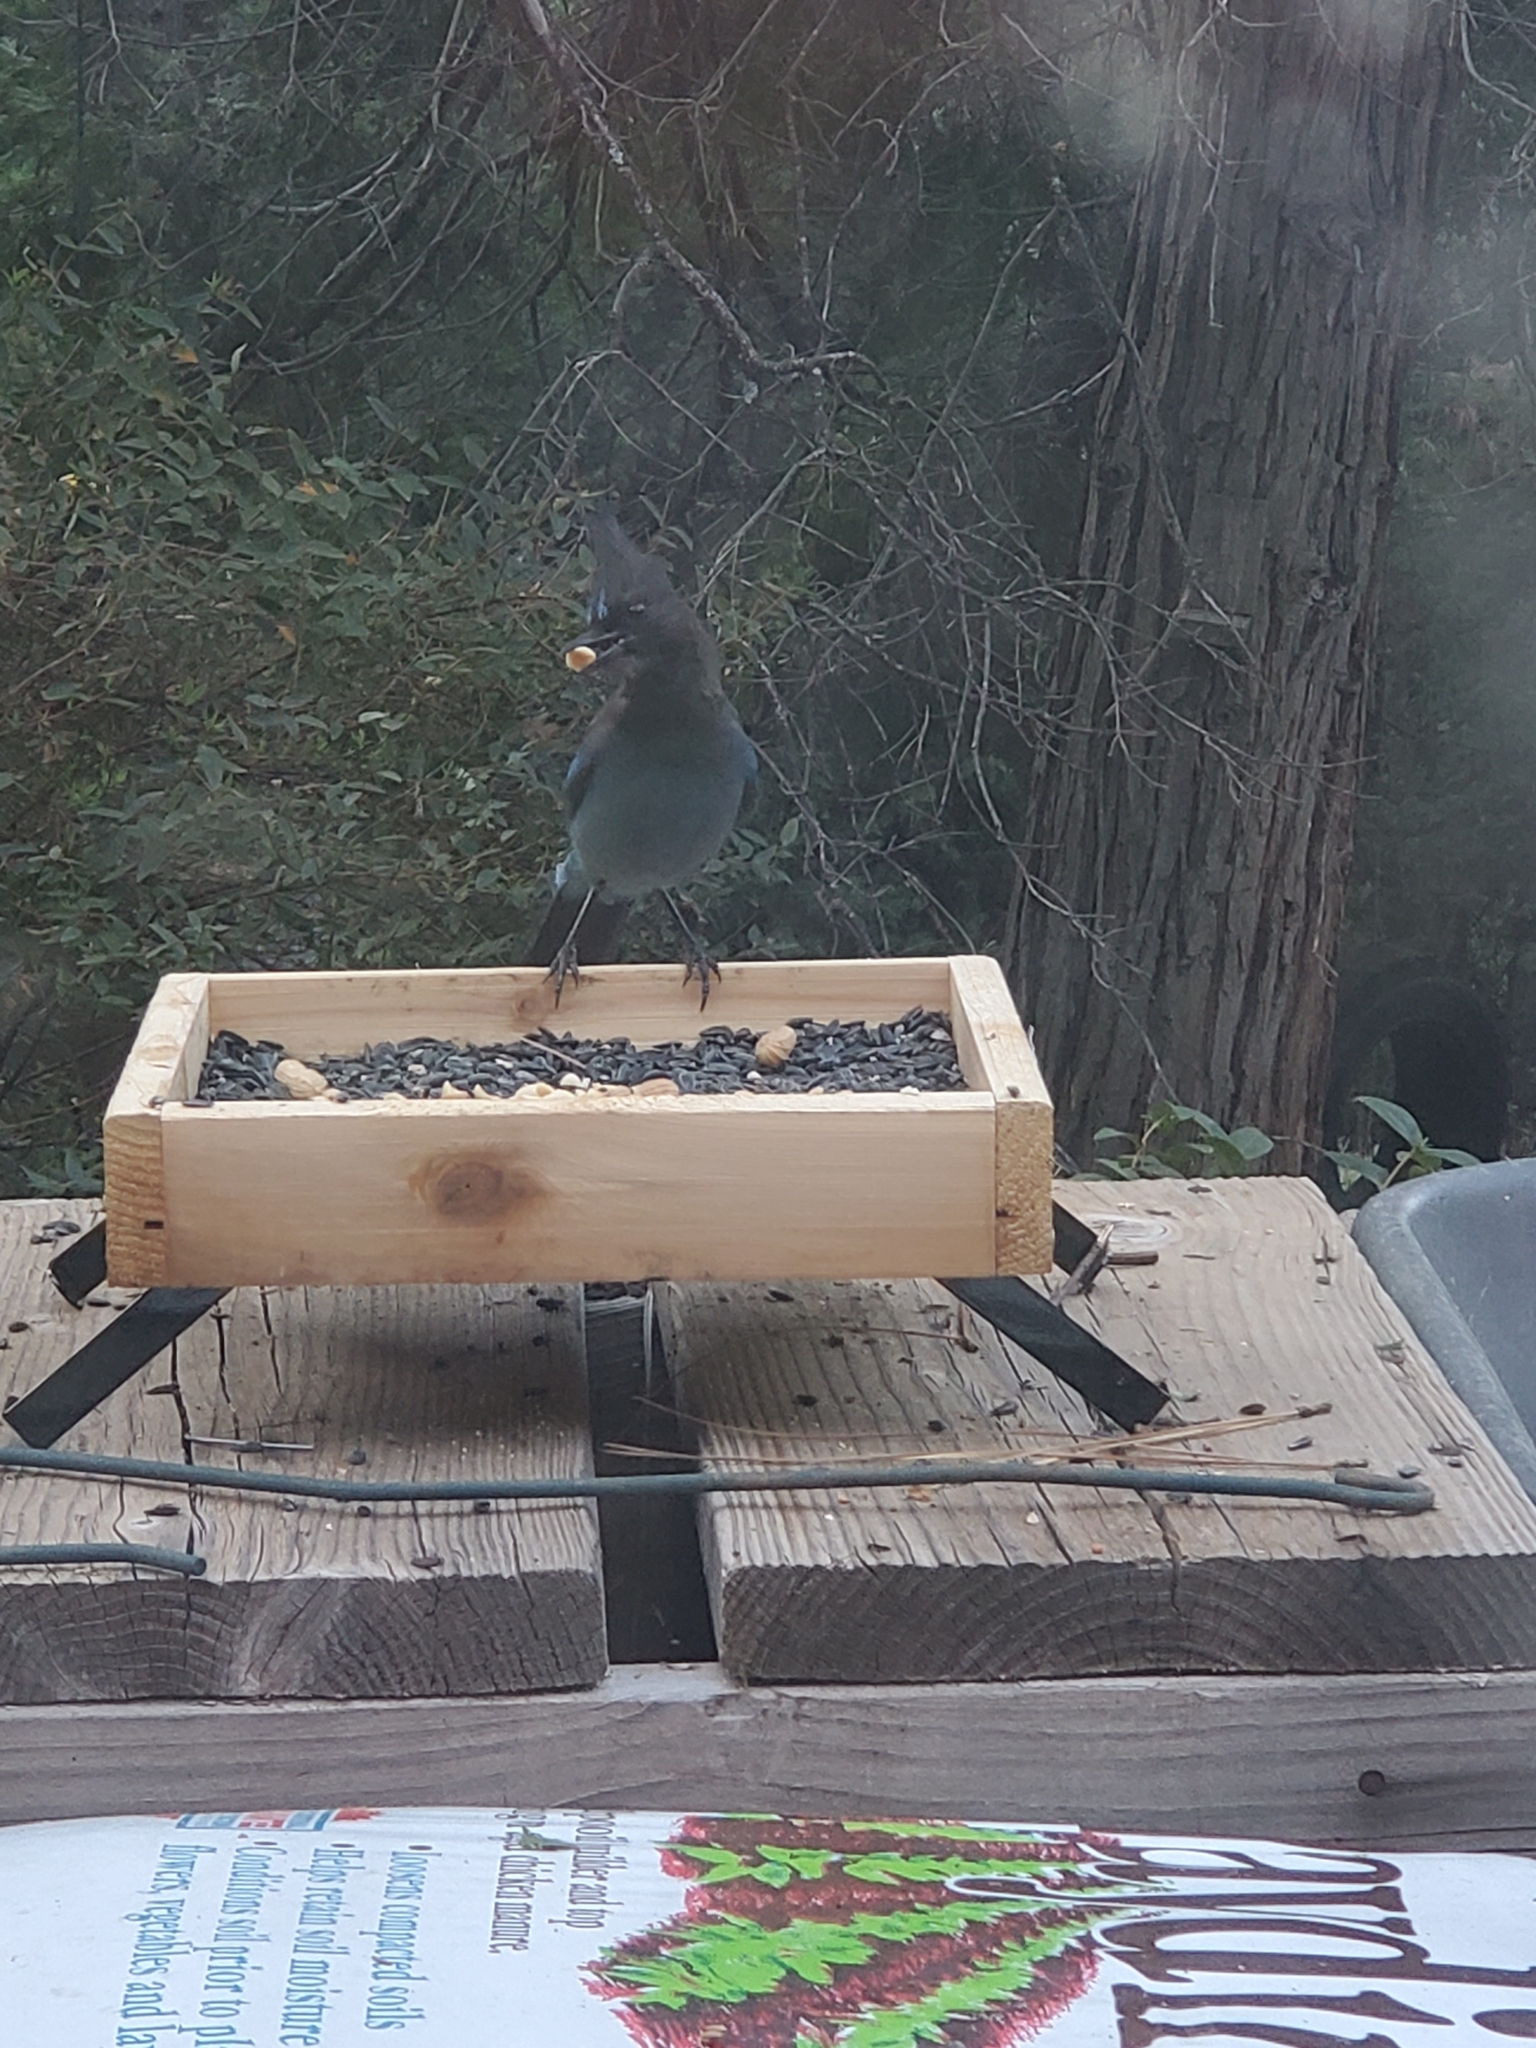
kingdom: Animalia
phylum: Chordata
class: Aves
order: Passeriformes
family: Corvidae
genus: Cyanocitta
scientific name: Cyanocitta stelleri
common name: Steller's jay
